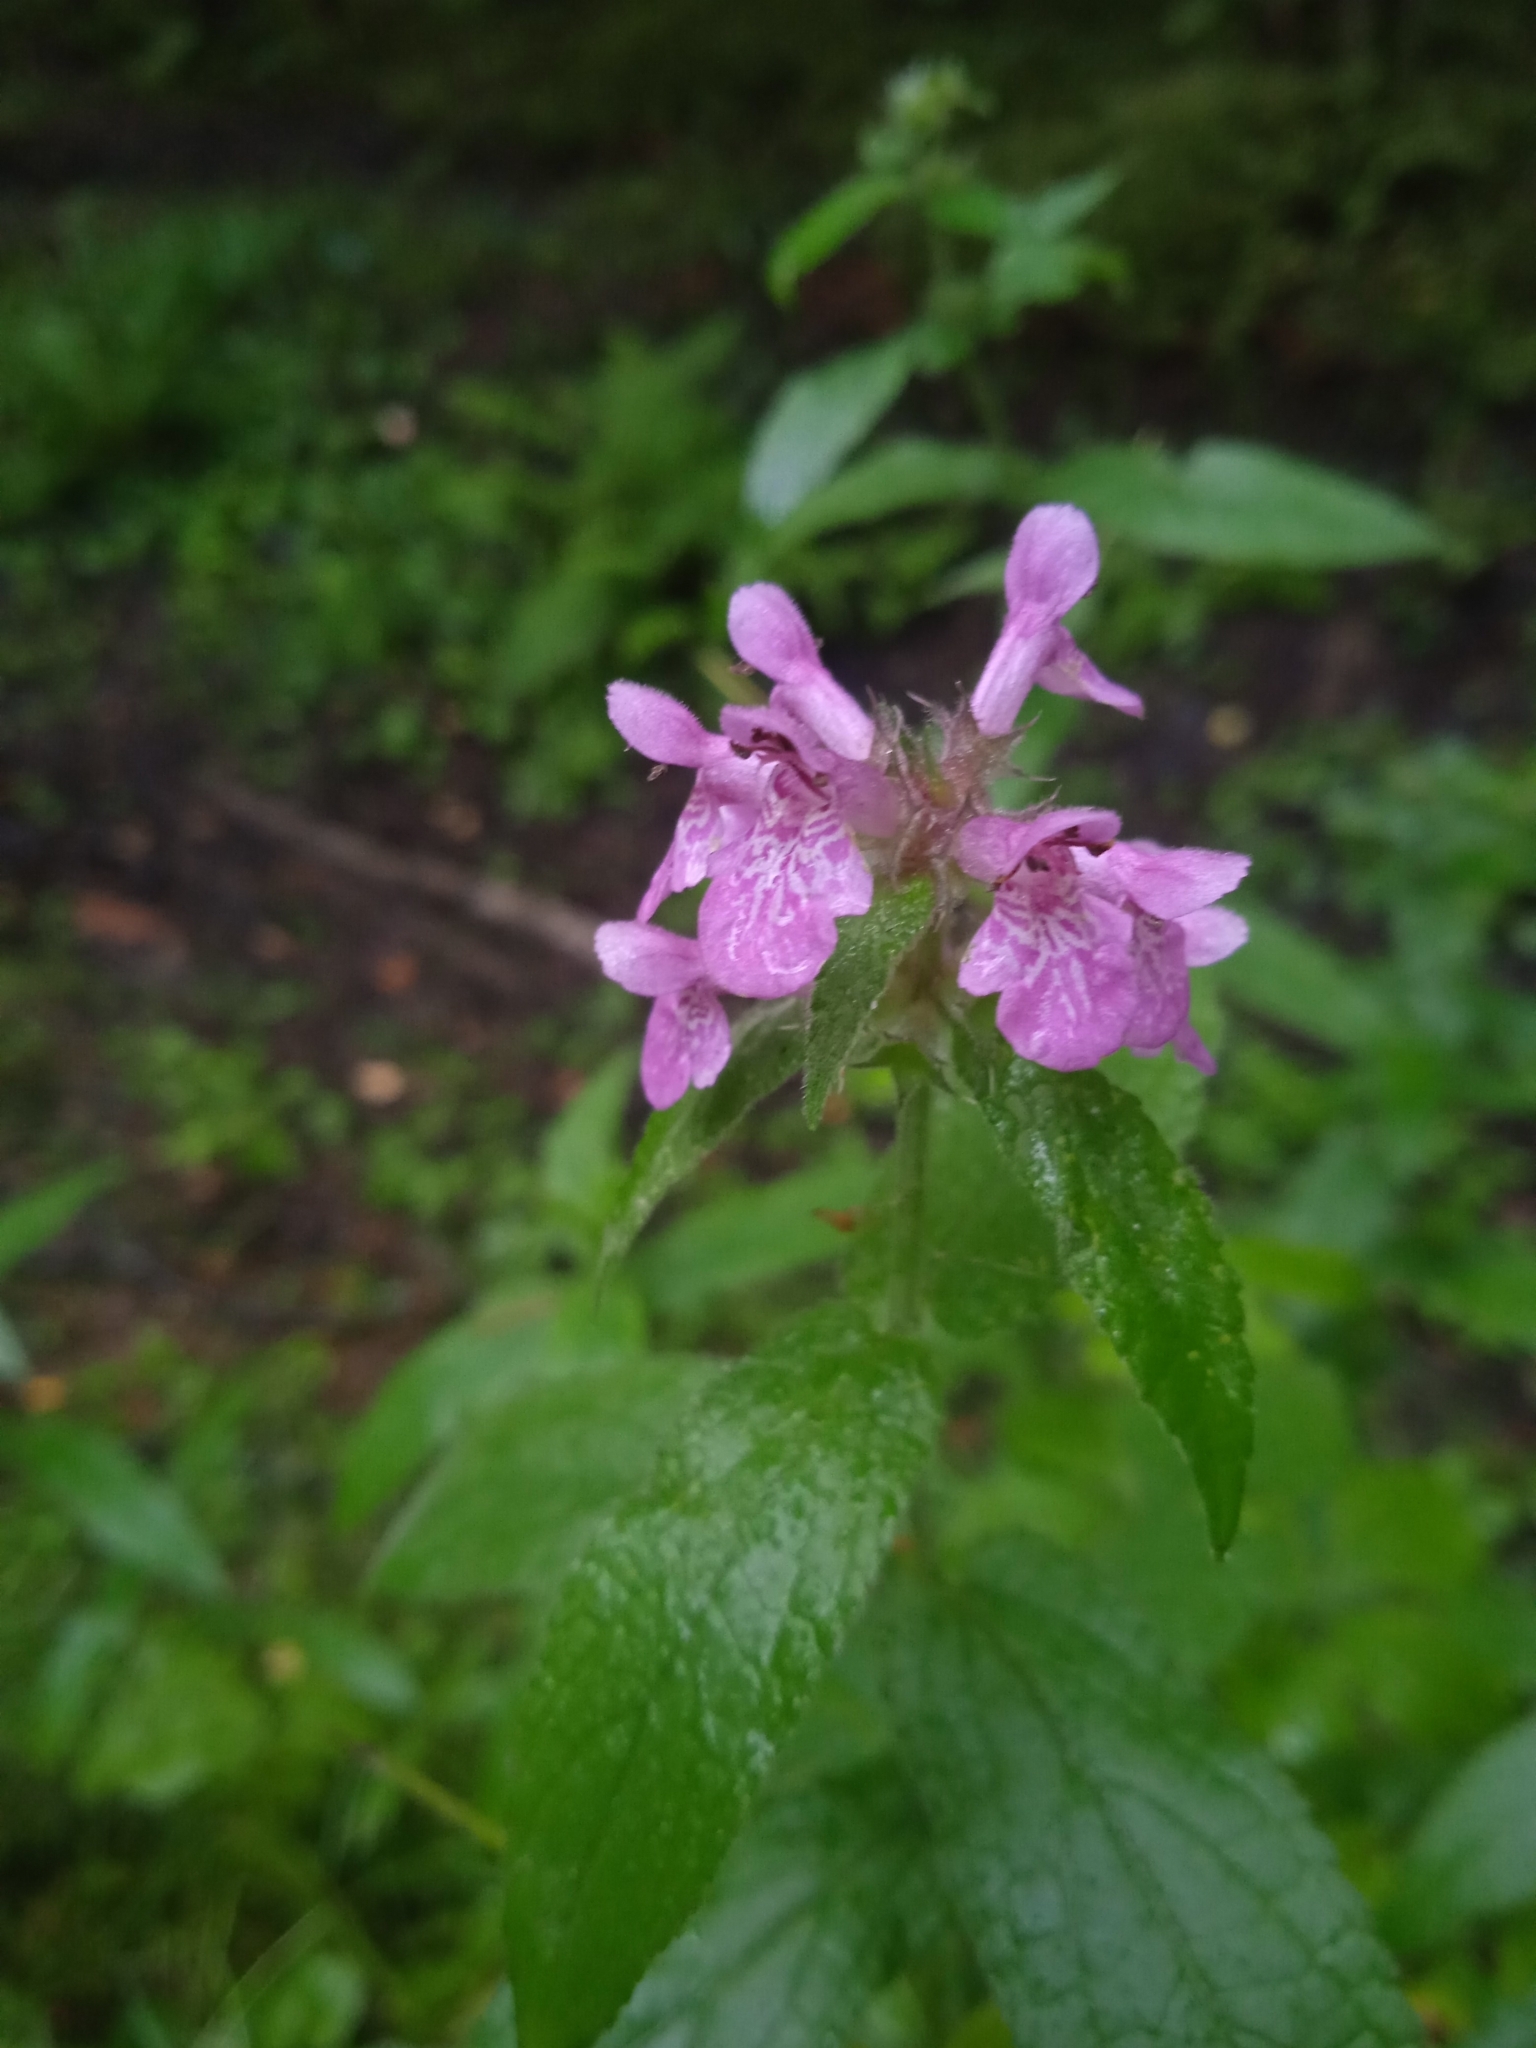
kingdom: Plantae
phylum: Tracheophyta
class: Magnoliopsida
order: Lamiales
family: Lamiaceae
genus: Stachys
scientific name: Stachys palustris
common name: Marsh woundwort
